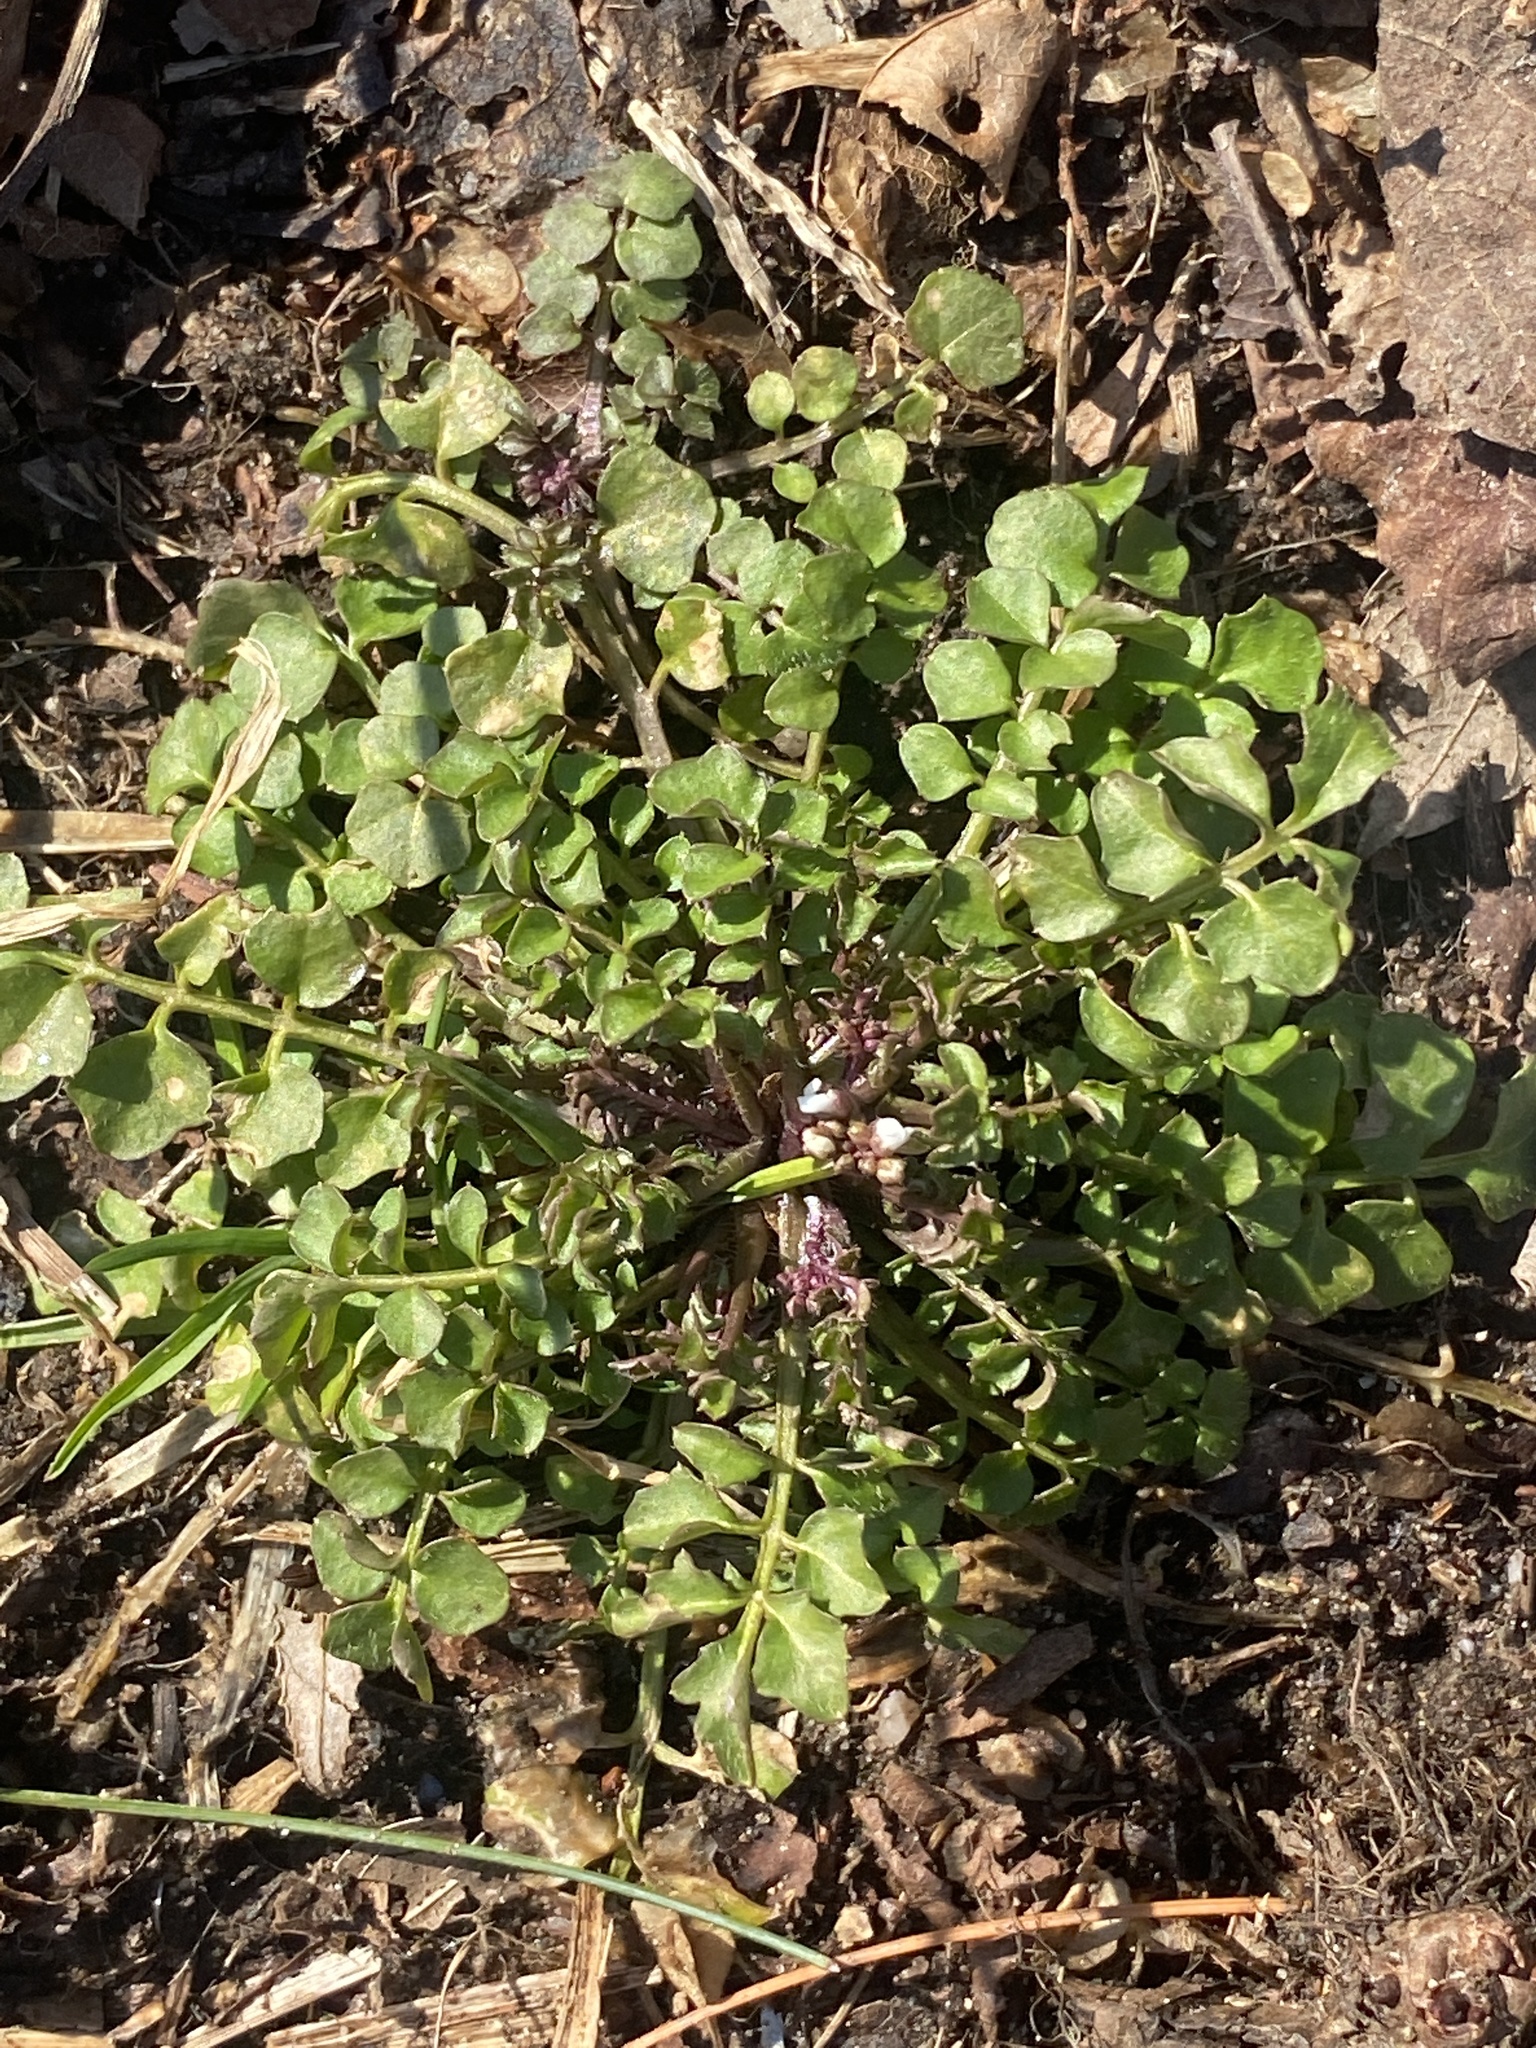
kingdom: Plantae
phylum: Tracheophyta
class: Magnoliopsida
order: Brassicales
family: Brassicaceae
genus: Cardamine
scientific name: Cardamine hirsuta
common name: Hairy bittercress
